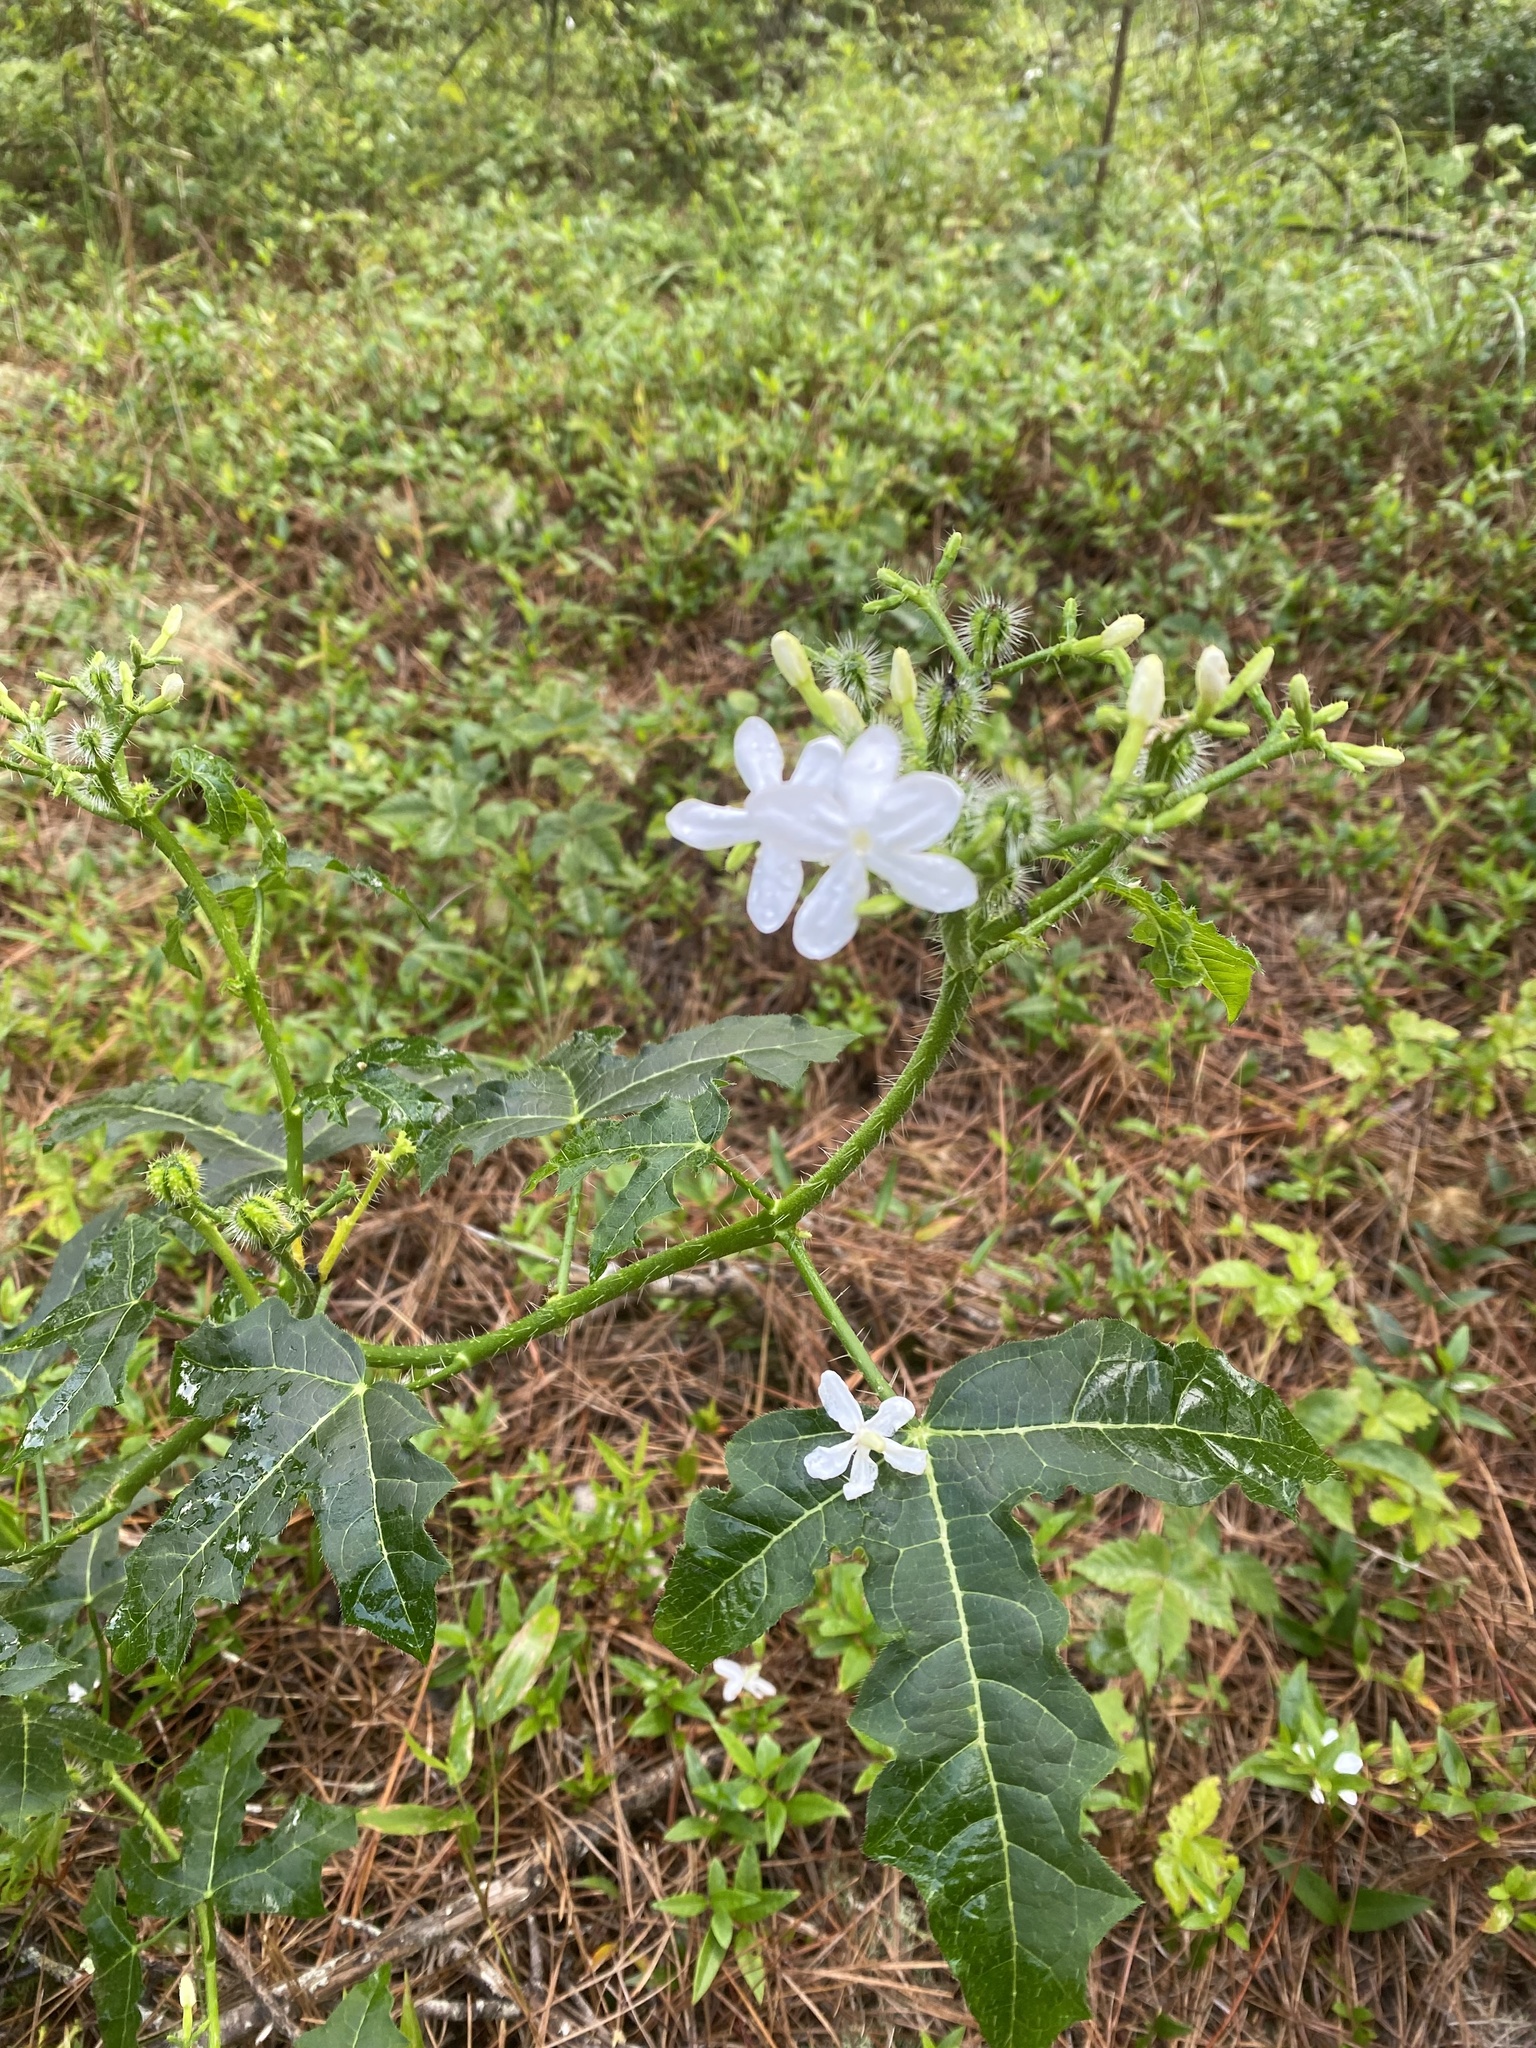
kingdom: Plantae
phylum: Tracheophyta
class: Magnoliopsida
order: Malpighiales
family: Euphorbiaceae
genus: Cnidoscolus
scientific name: Cnidoscolus stimulosus
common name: Bull-nettle
